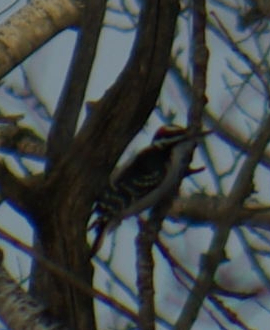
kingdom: Animalia
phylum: Chordata
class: Aves
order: Piciformes
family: Picidae
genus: Leuconotopicus
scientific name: Leuconotopicus villosus
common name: Hairy woodpecker
